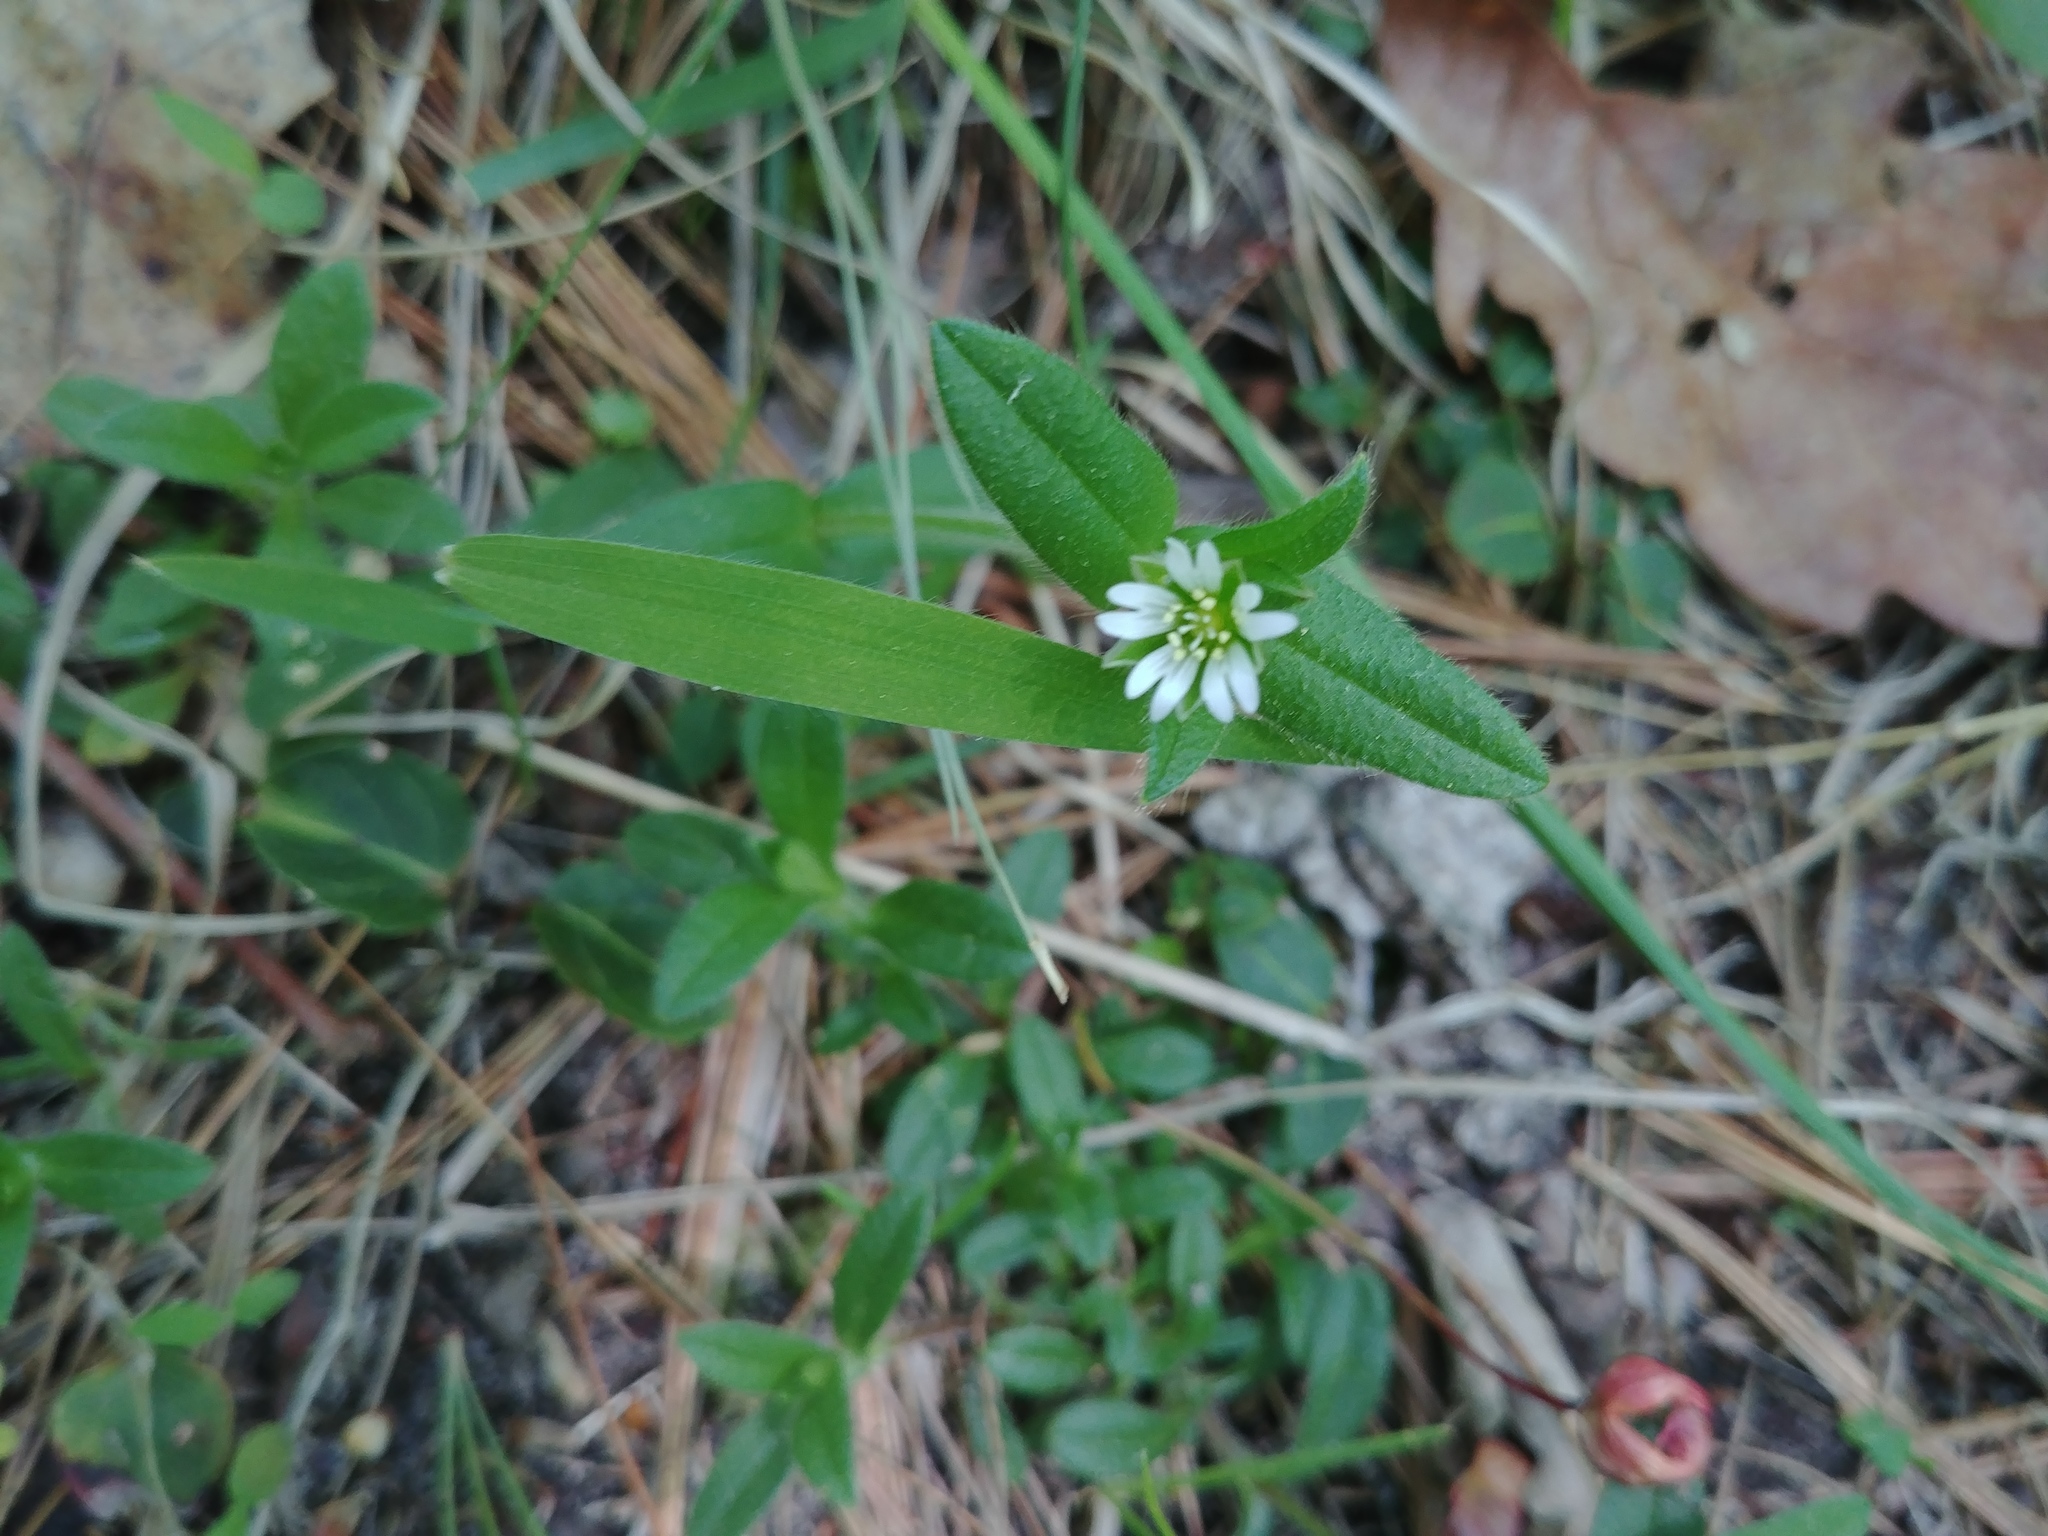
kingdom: Plantae
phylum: Tracheophyta
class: Magnoliopsida
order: Caryophyllales
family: Caryophyllaceae
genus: Cerastium
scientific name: Cerastium fontanum
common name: Common mouse-ear
